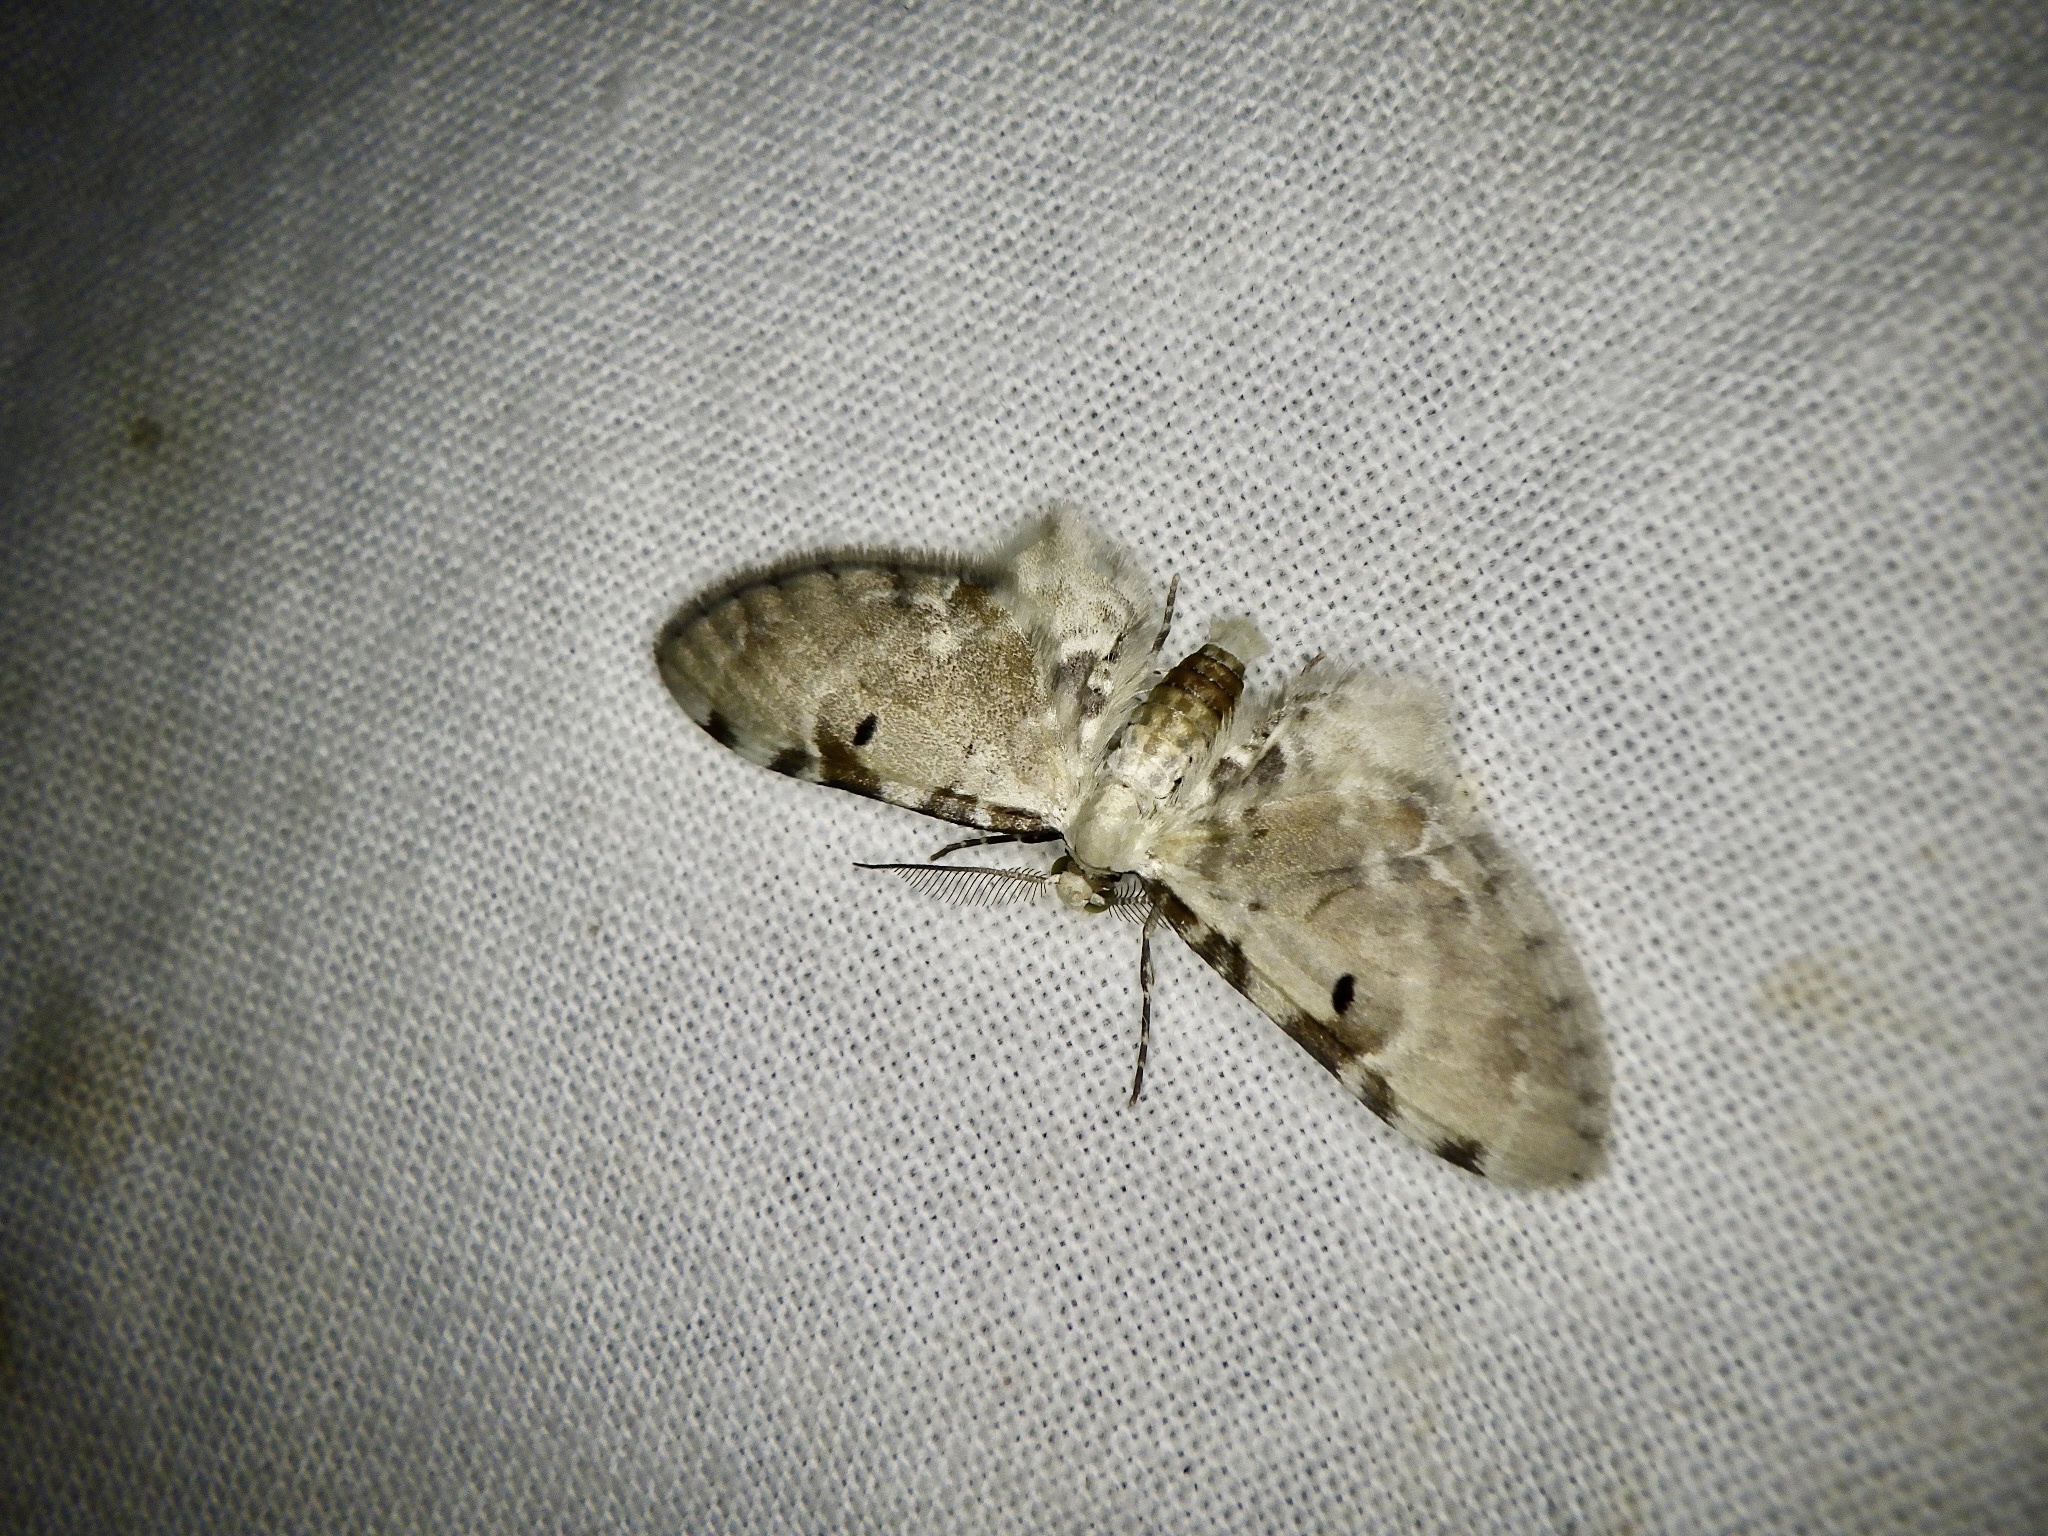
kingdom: Animalia
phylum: Arthropoda
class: Insecta
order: Lepidoptera
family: Geometridae
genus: Brabira
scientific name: Brabira artemidora
